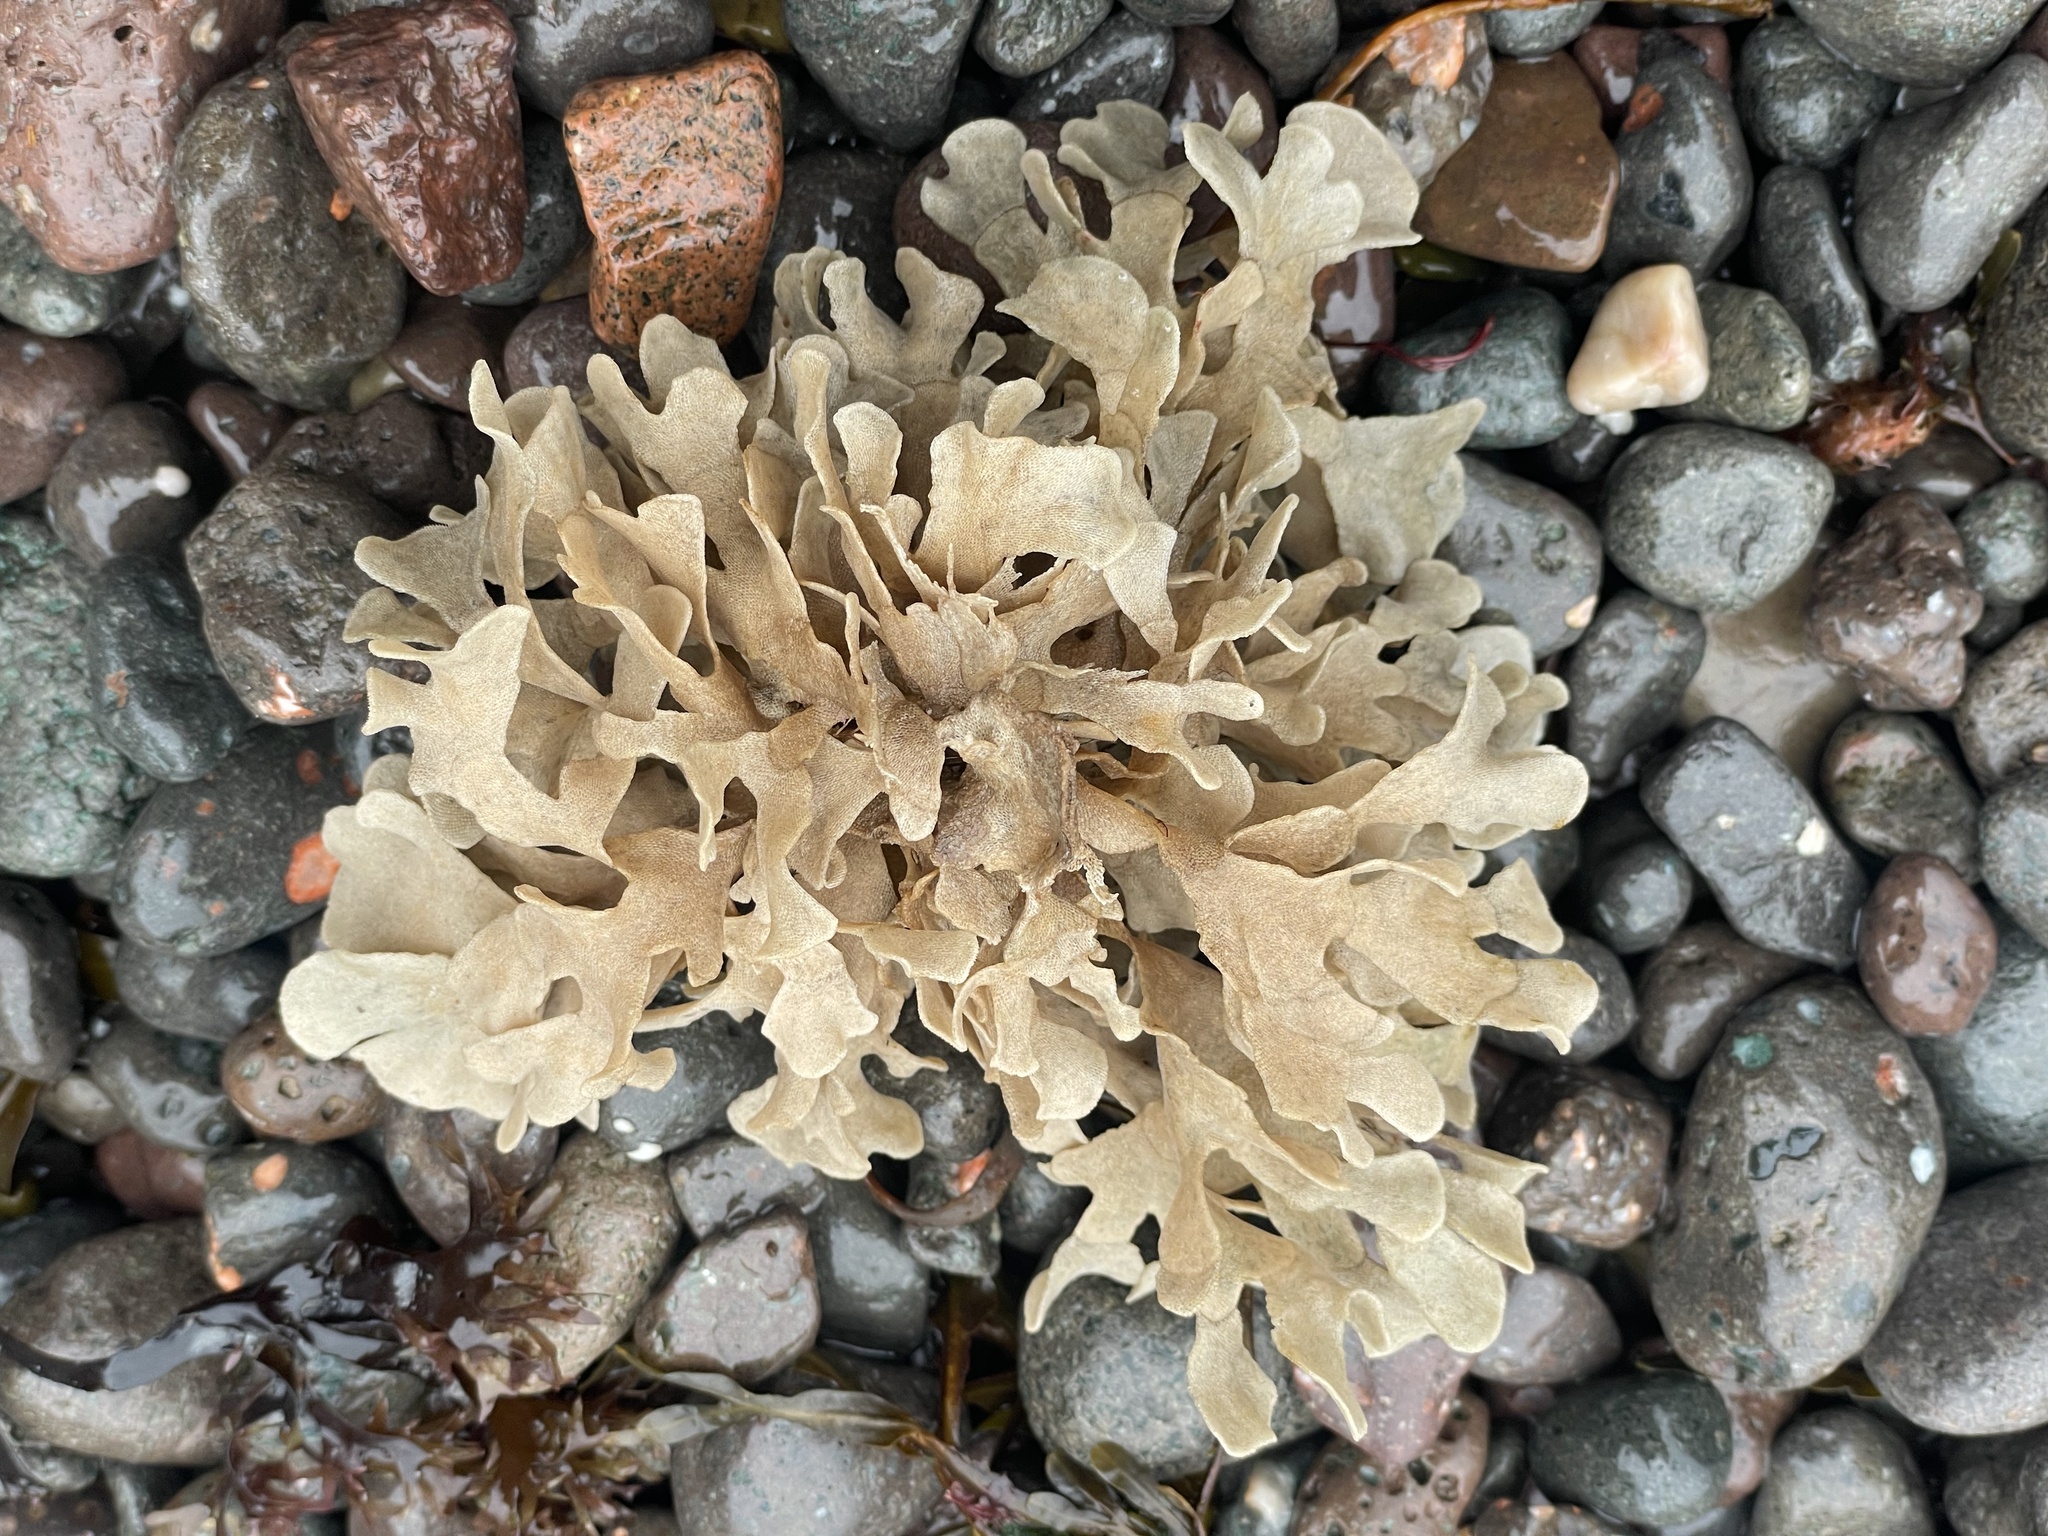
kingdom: Animalia
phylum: Bryozoa
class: Gymnolaemata
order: Cheilostomatida
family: Flustridae
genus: Flustra
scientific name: Flustra foliacea
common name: Hornwrack
